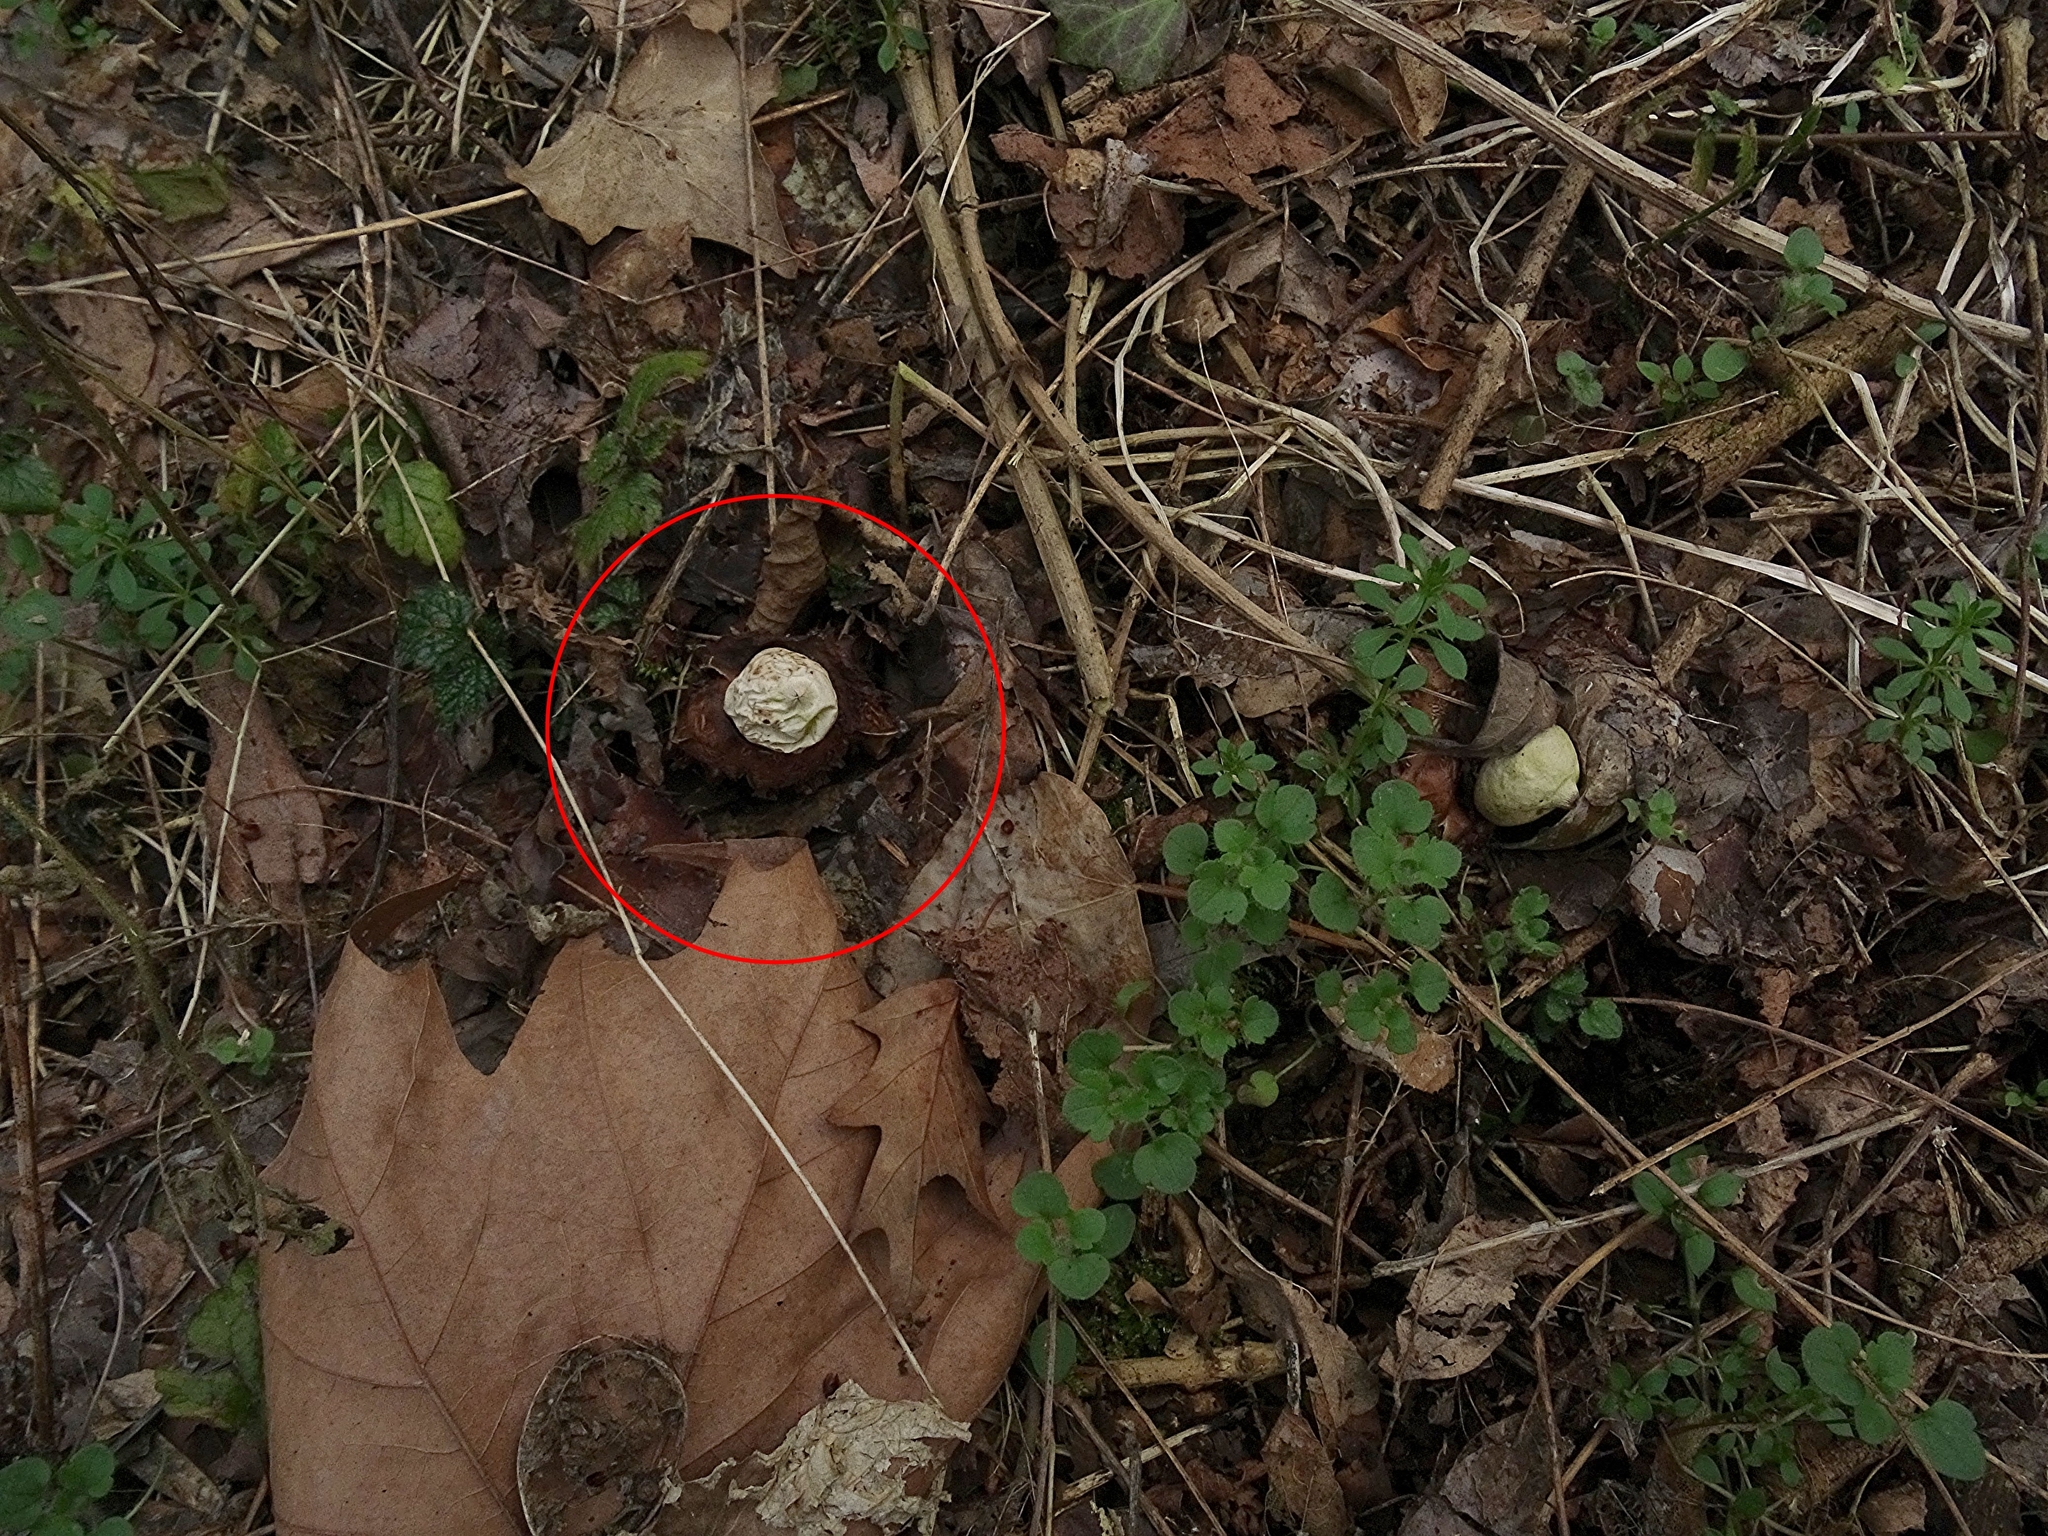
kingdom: Fungi
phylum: Basidiomycota
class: Agaricomycetes
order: Geastrales
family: Geastraceae
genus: Geastrum
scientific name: Geastrum triplex
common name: Collared earthstar
